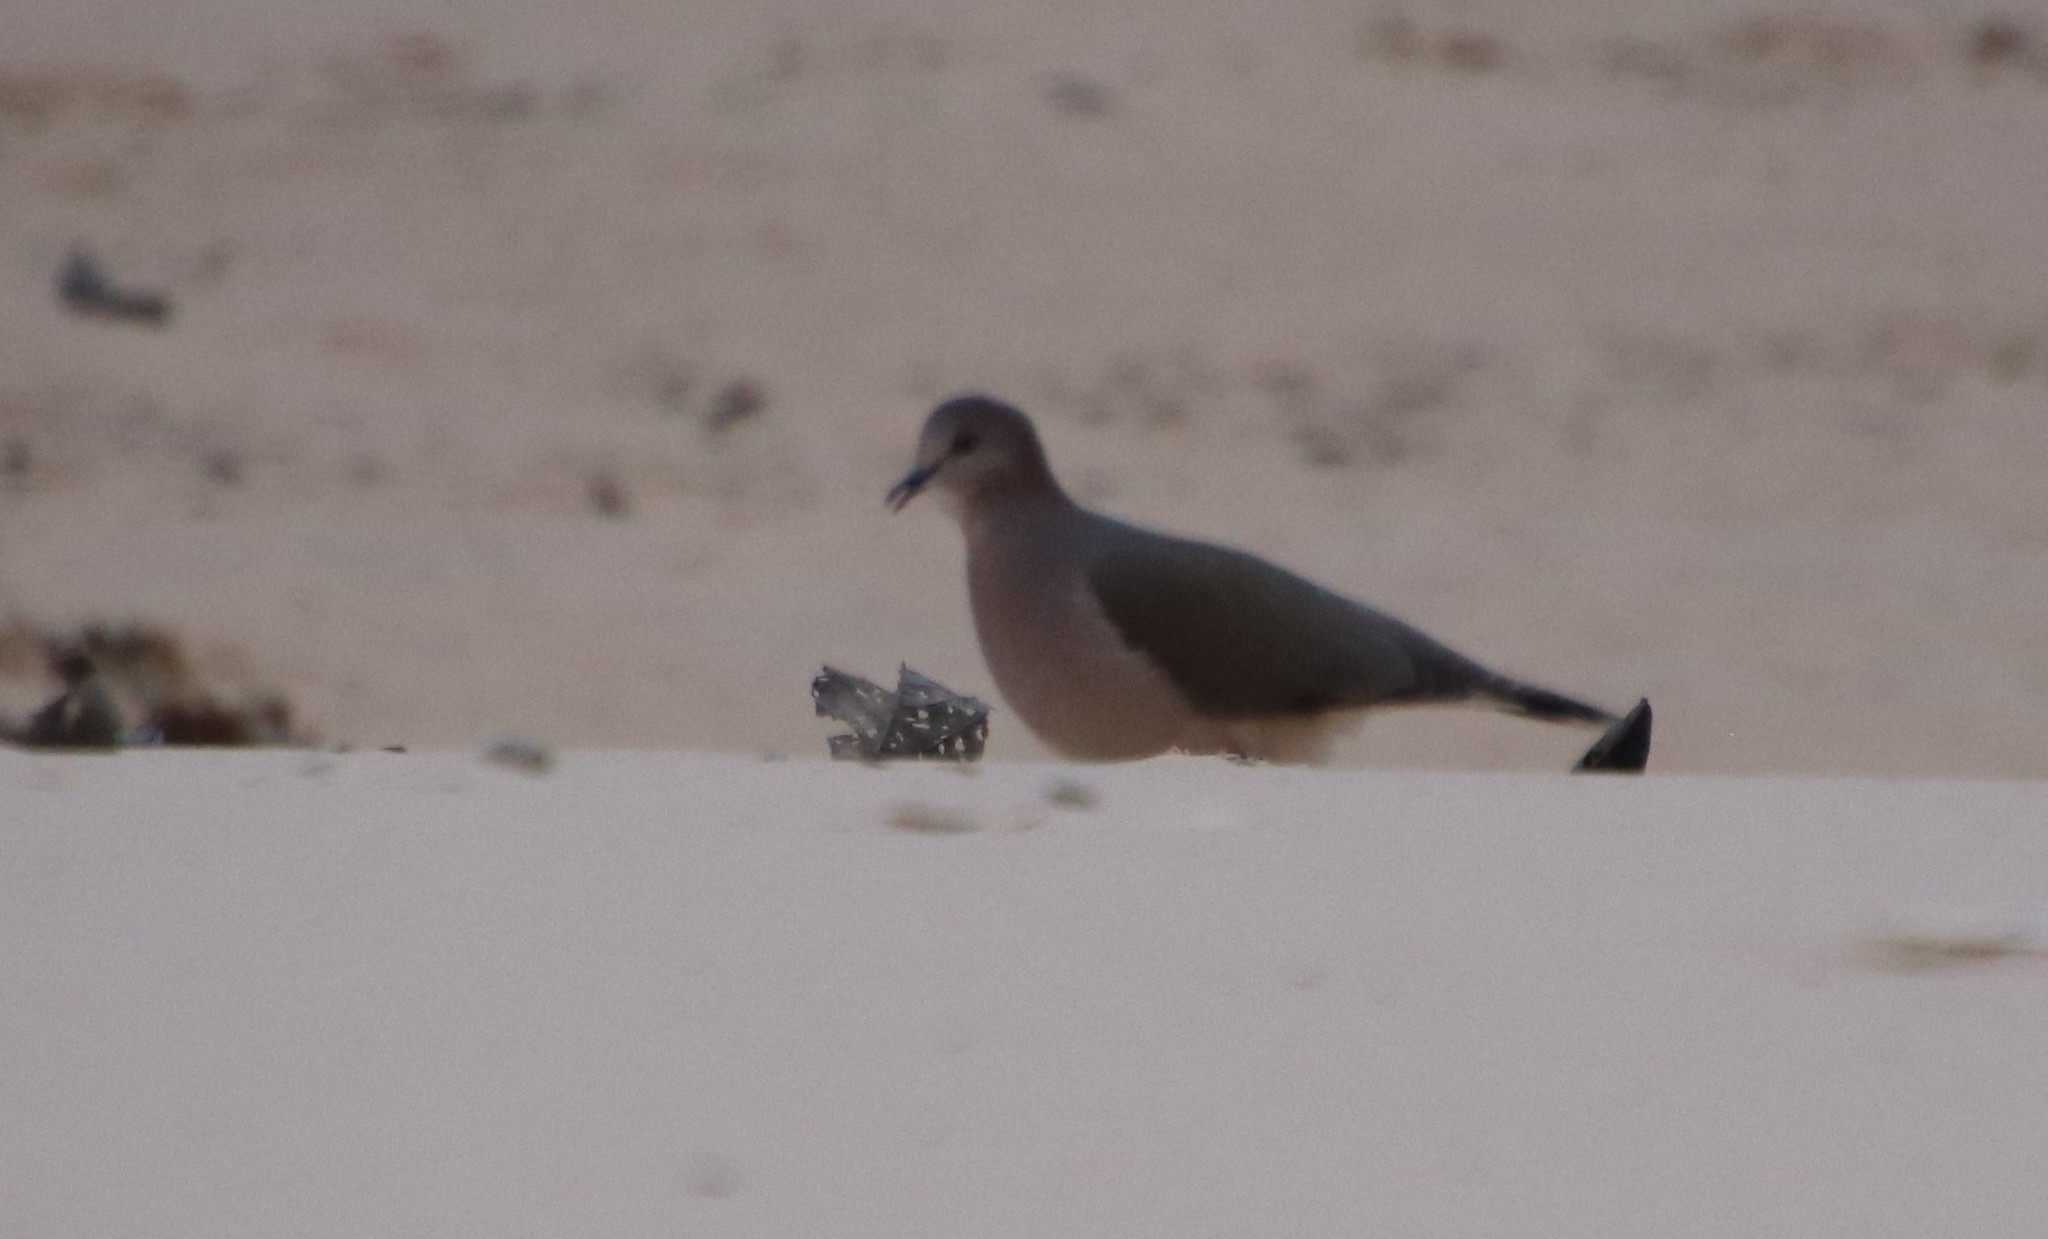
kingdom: Animalia
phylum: Chordata
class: Aves
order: Columbiformes
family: Columbidae
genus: Leptotila
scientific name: Leptotila verreauxi
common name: White-tipped dove
